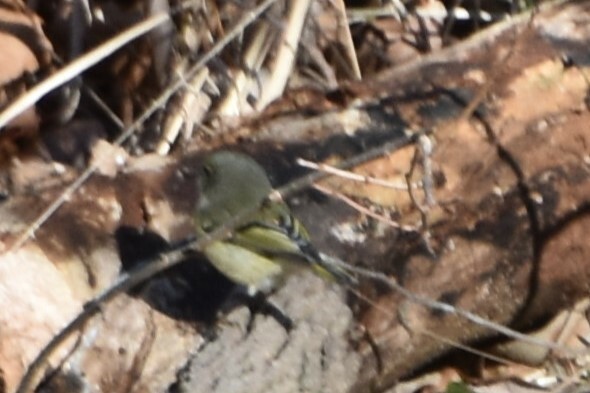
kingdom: Animalia
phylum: Chordata
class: Aves
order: Passeriformes
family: Regulidae
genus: Regulus
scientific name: Regulus calendula
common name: Ruby-crowned kinglet
